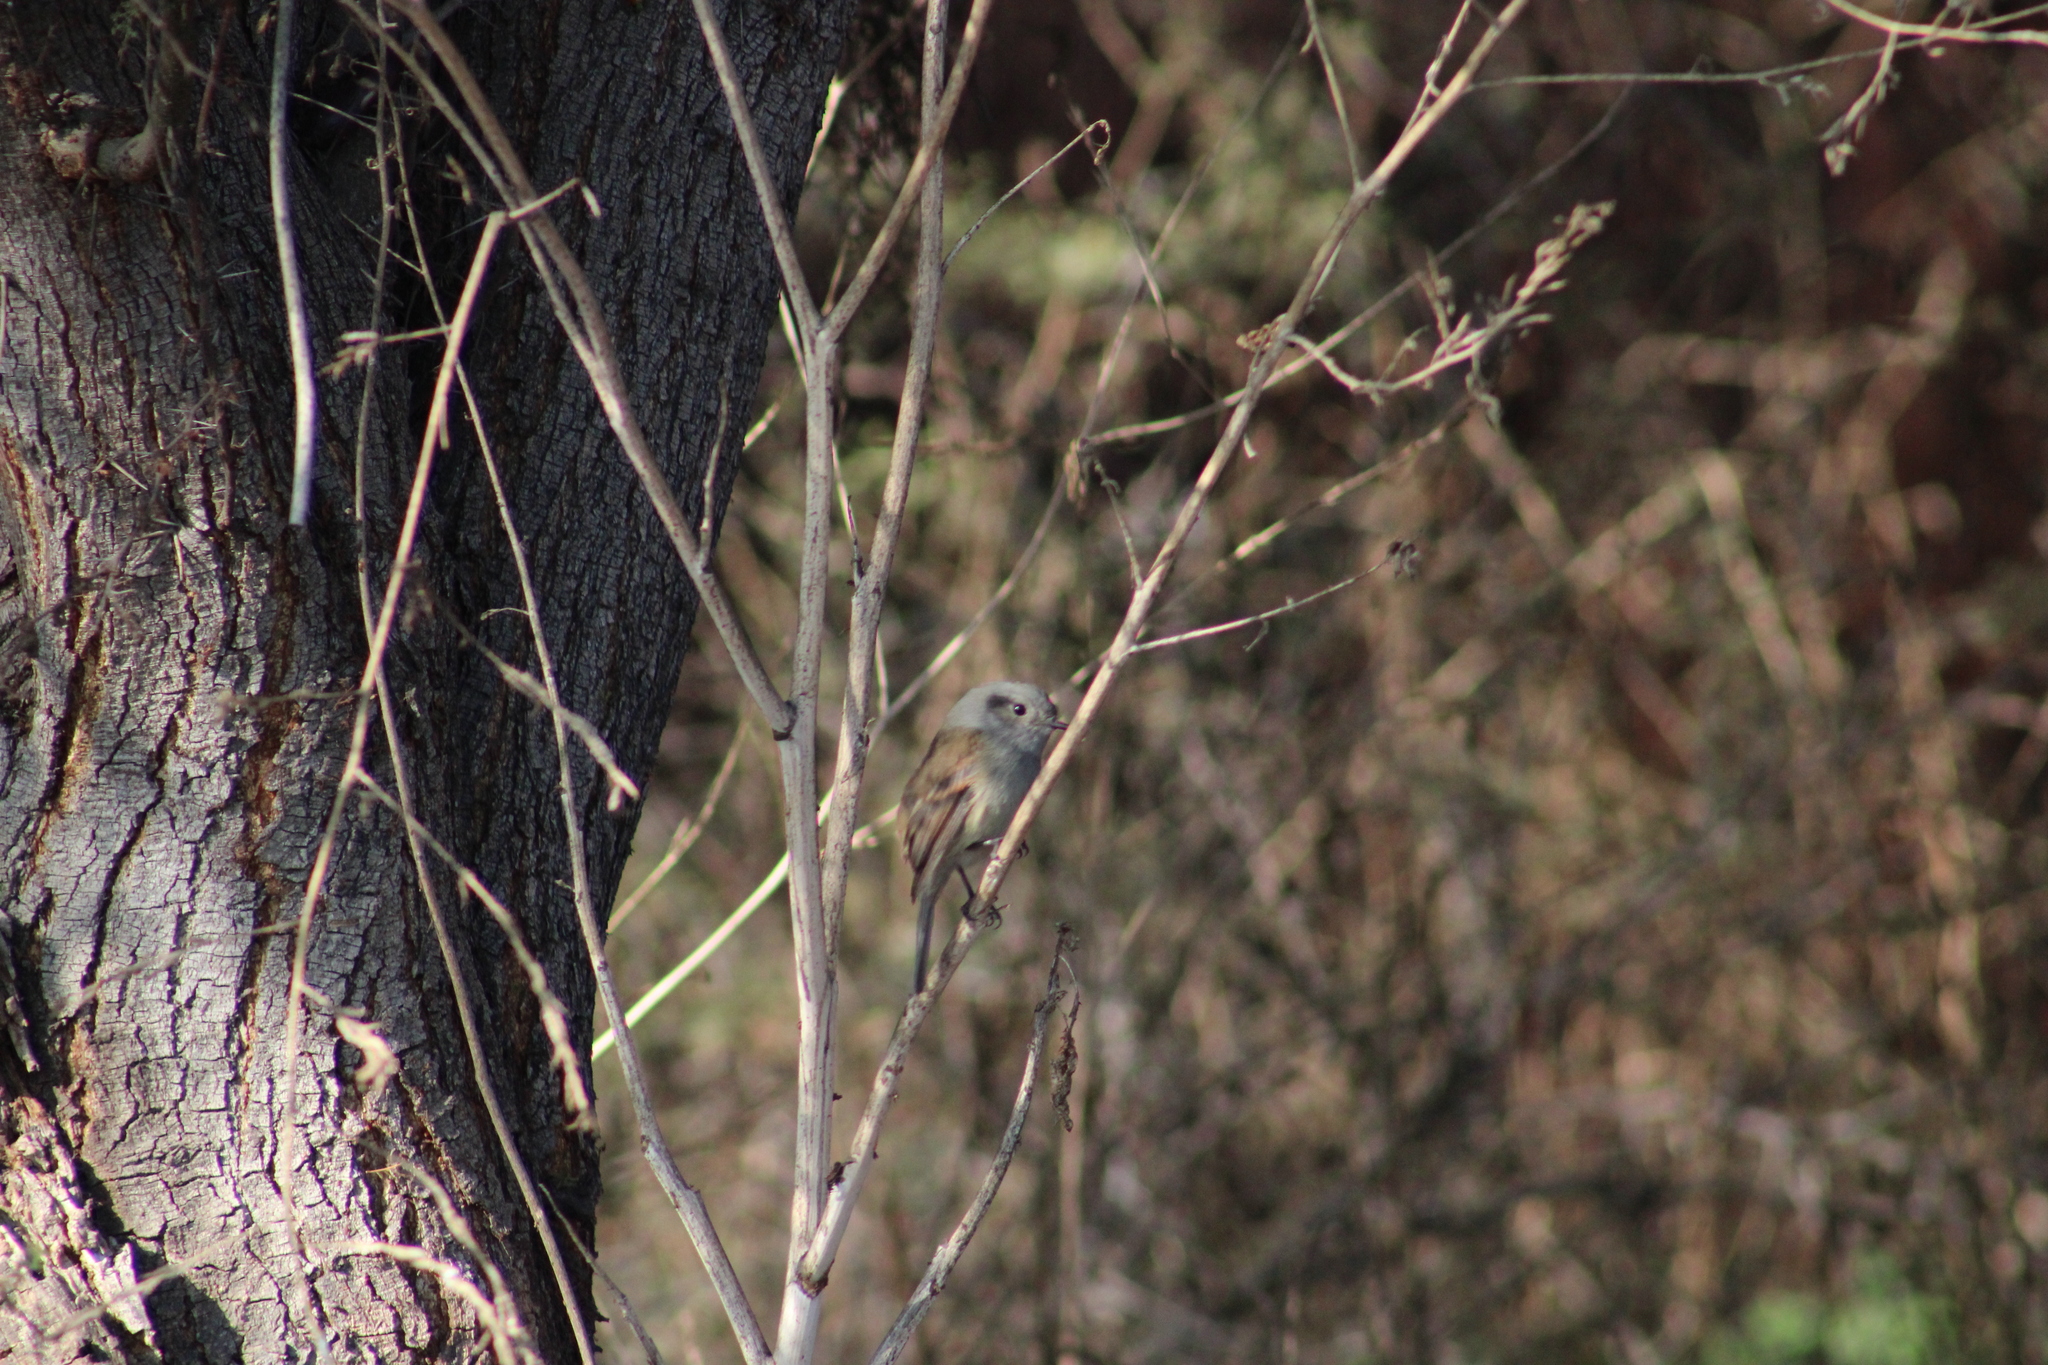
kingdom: Animalia
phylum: Chordata
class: Aves
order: Passeriformes
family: Tyrannidae
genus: Colorhamphus
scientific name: Colorhamphus parvirostris
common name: Patagonian tyrant
